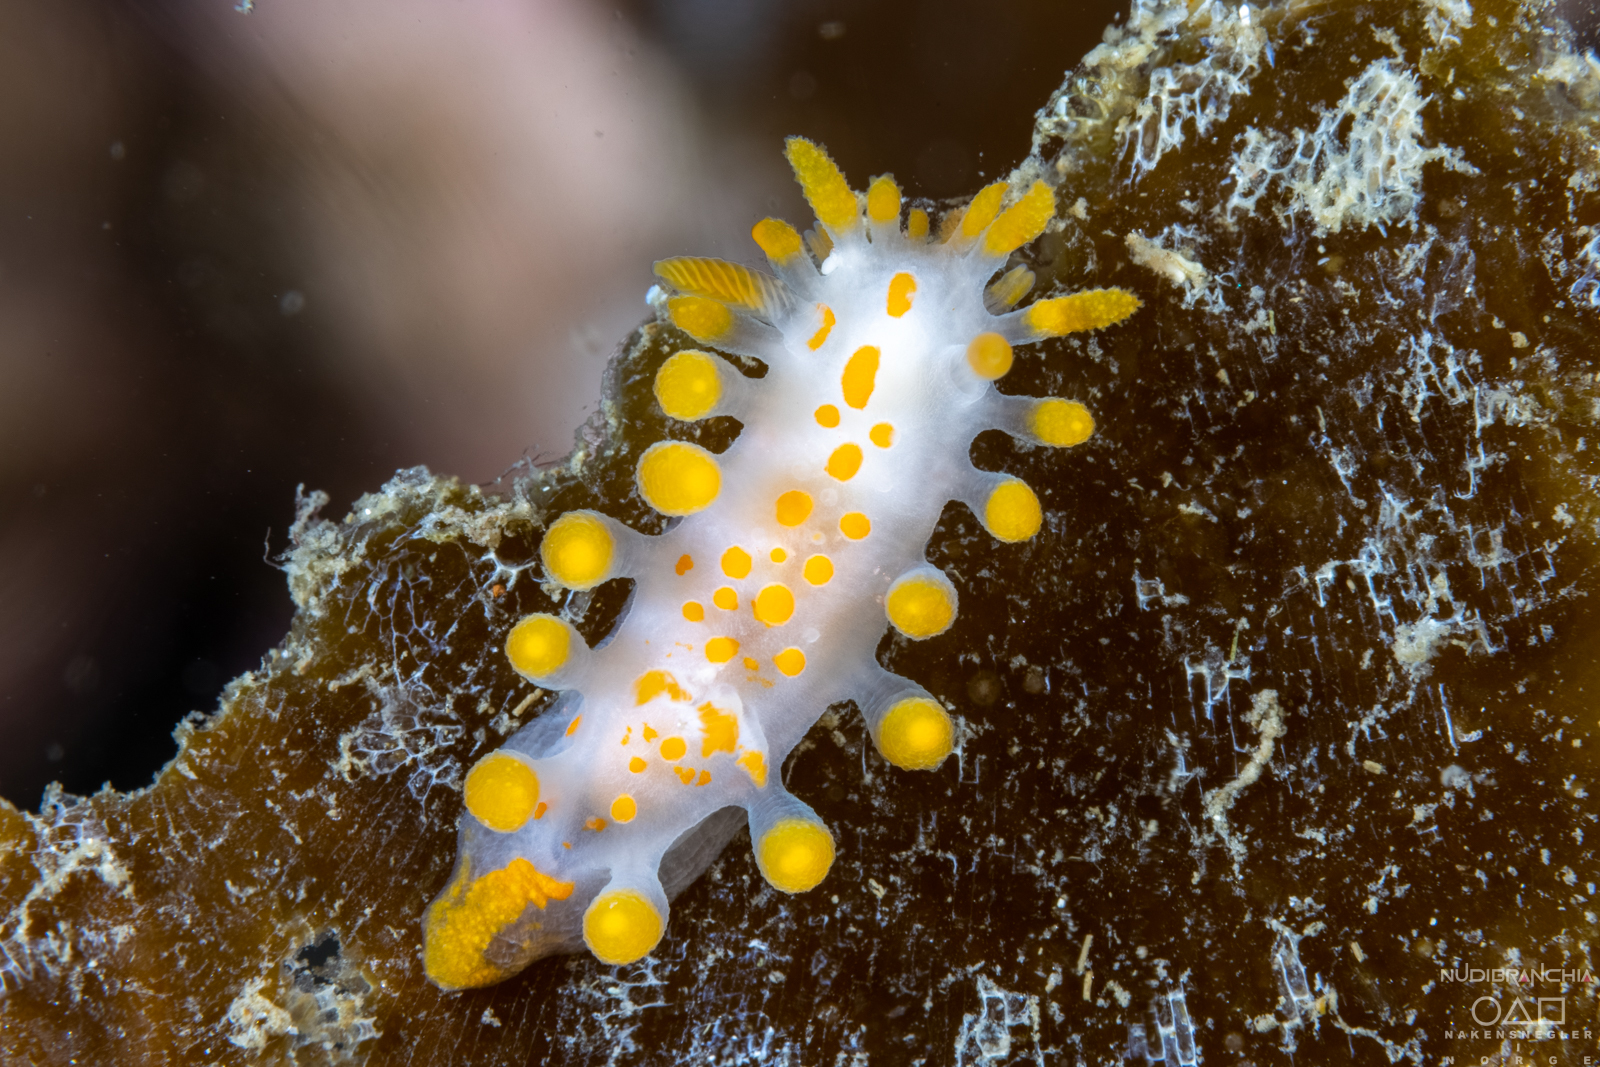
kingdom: Animalia
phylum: Mollusca
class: Gastropoda
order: Nudibranchia
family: Polyceridae
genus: Limacia
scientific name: Limacia clavigera
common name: Orange-clubbed sea slug
